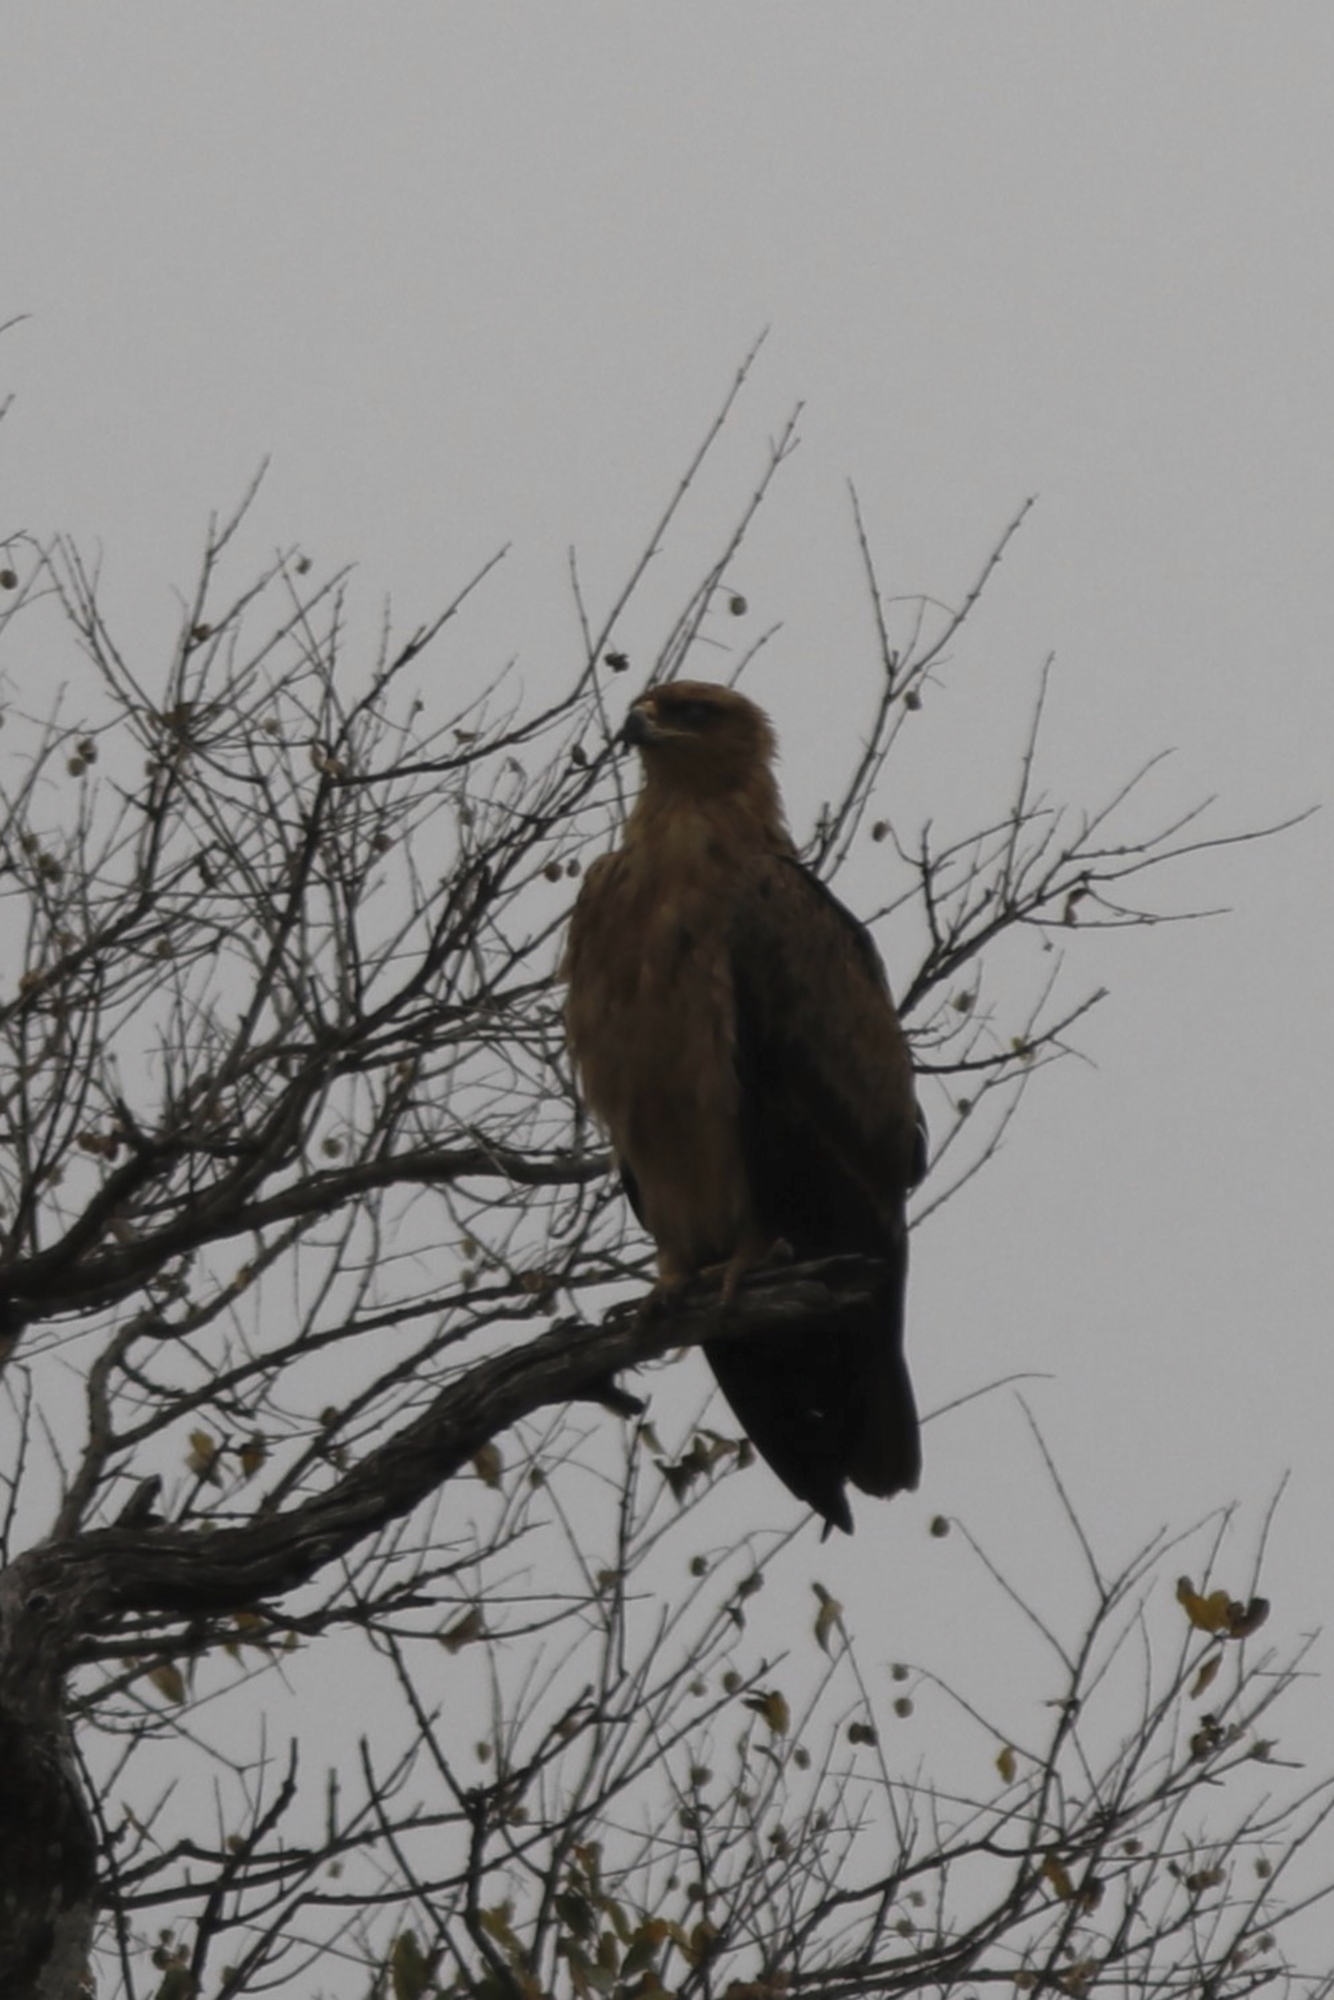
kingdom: Animalia
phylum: Chordata
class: Aves
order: Accipitriformes
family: Accipitridae
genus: Aquila
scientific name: Aquila rapax
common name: Tawny eagle
